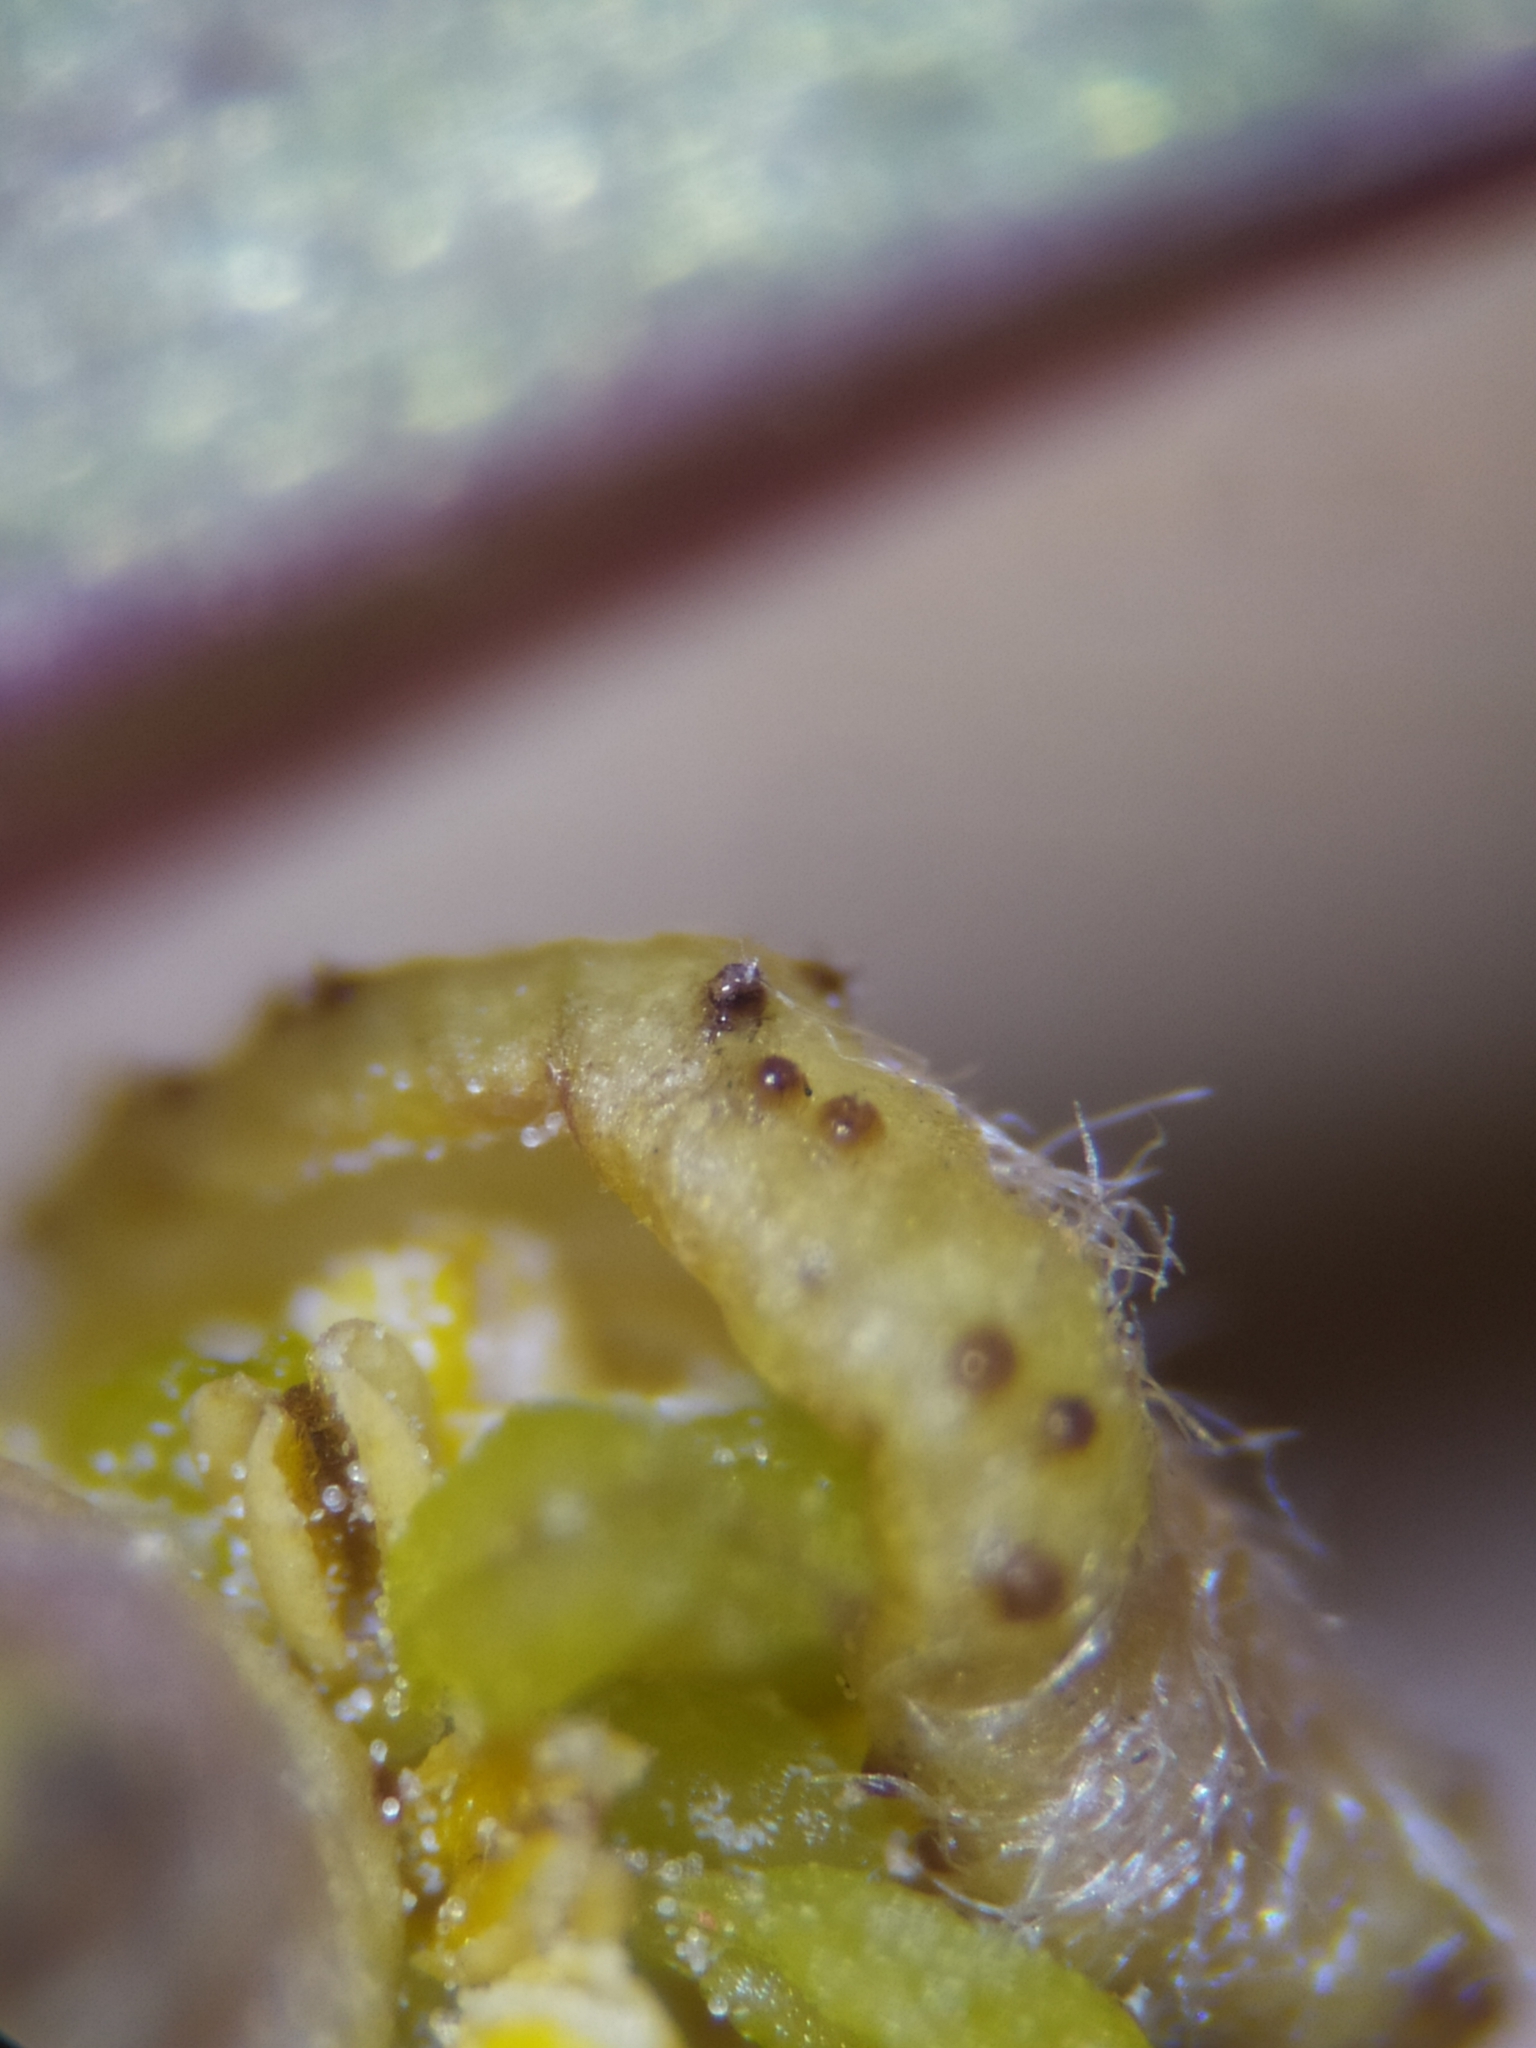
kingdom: Fungi
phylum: Basidiomycota
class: Pucciniomycetes
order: Pucciniales
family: Tranzscheliaceae
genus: Tranzschelia
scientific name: Tranzschelia pruni-spinosae
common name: Blackthorn rust
